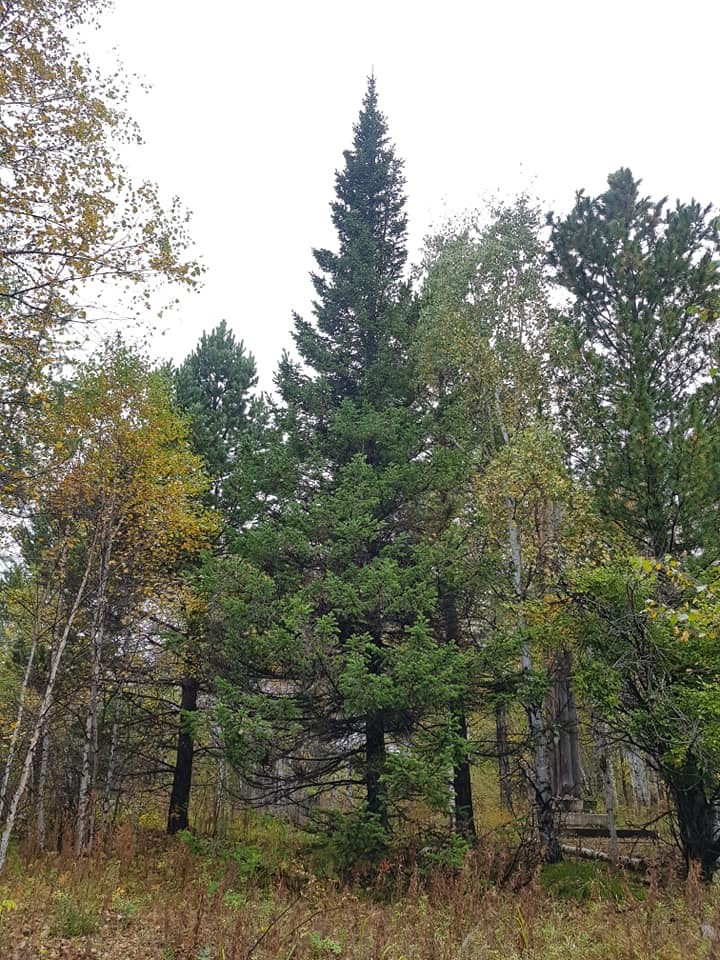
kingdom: Plantae
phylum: Tracheophyta
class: Pinopsida
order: Pinales
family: Pinaceae
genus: Abies
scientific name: Abies sibirica
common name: Siberian fir
